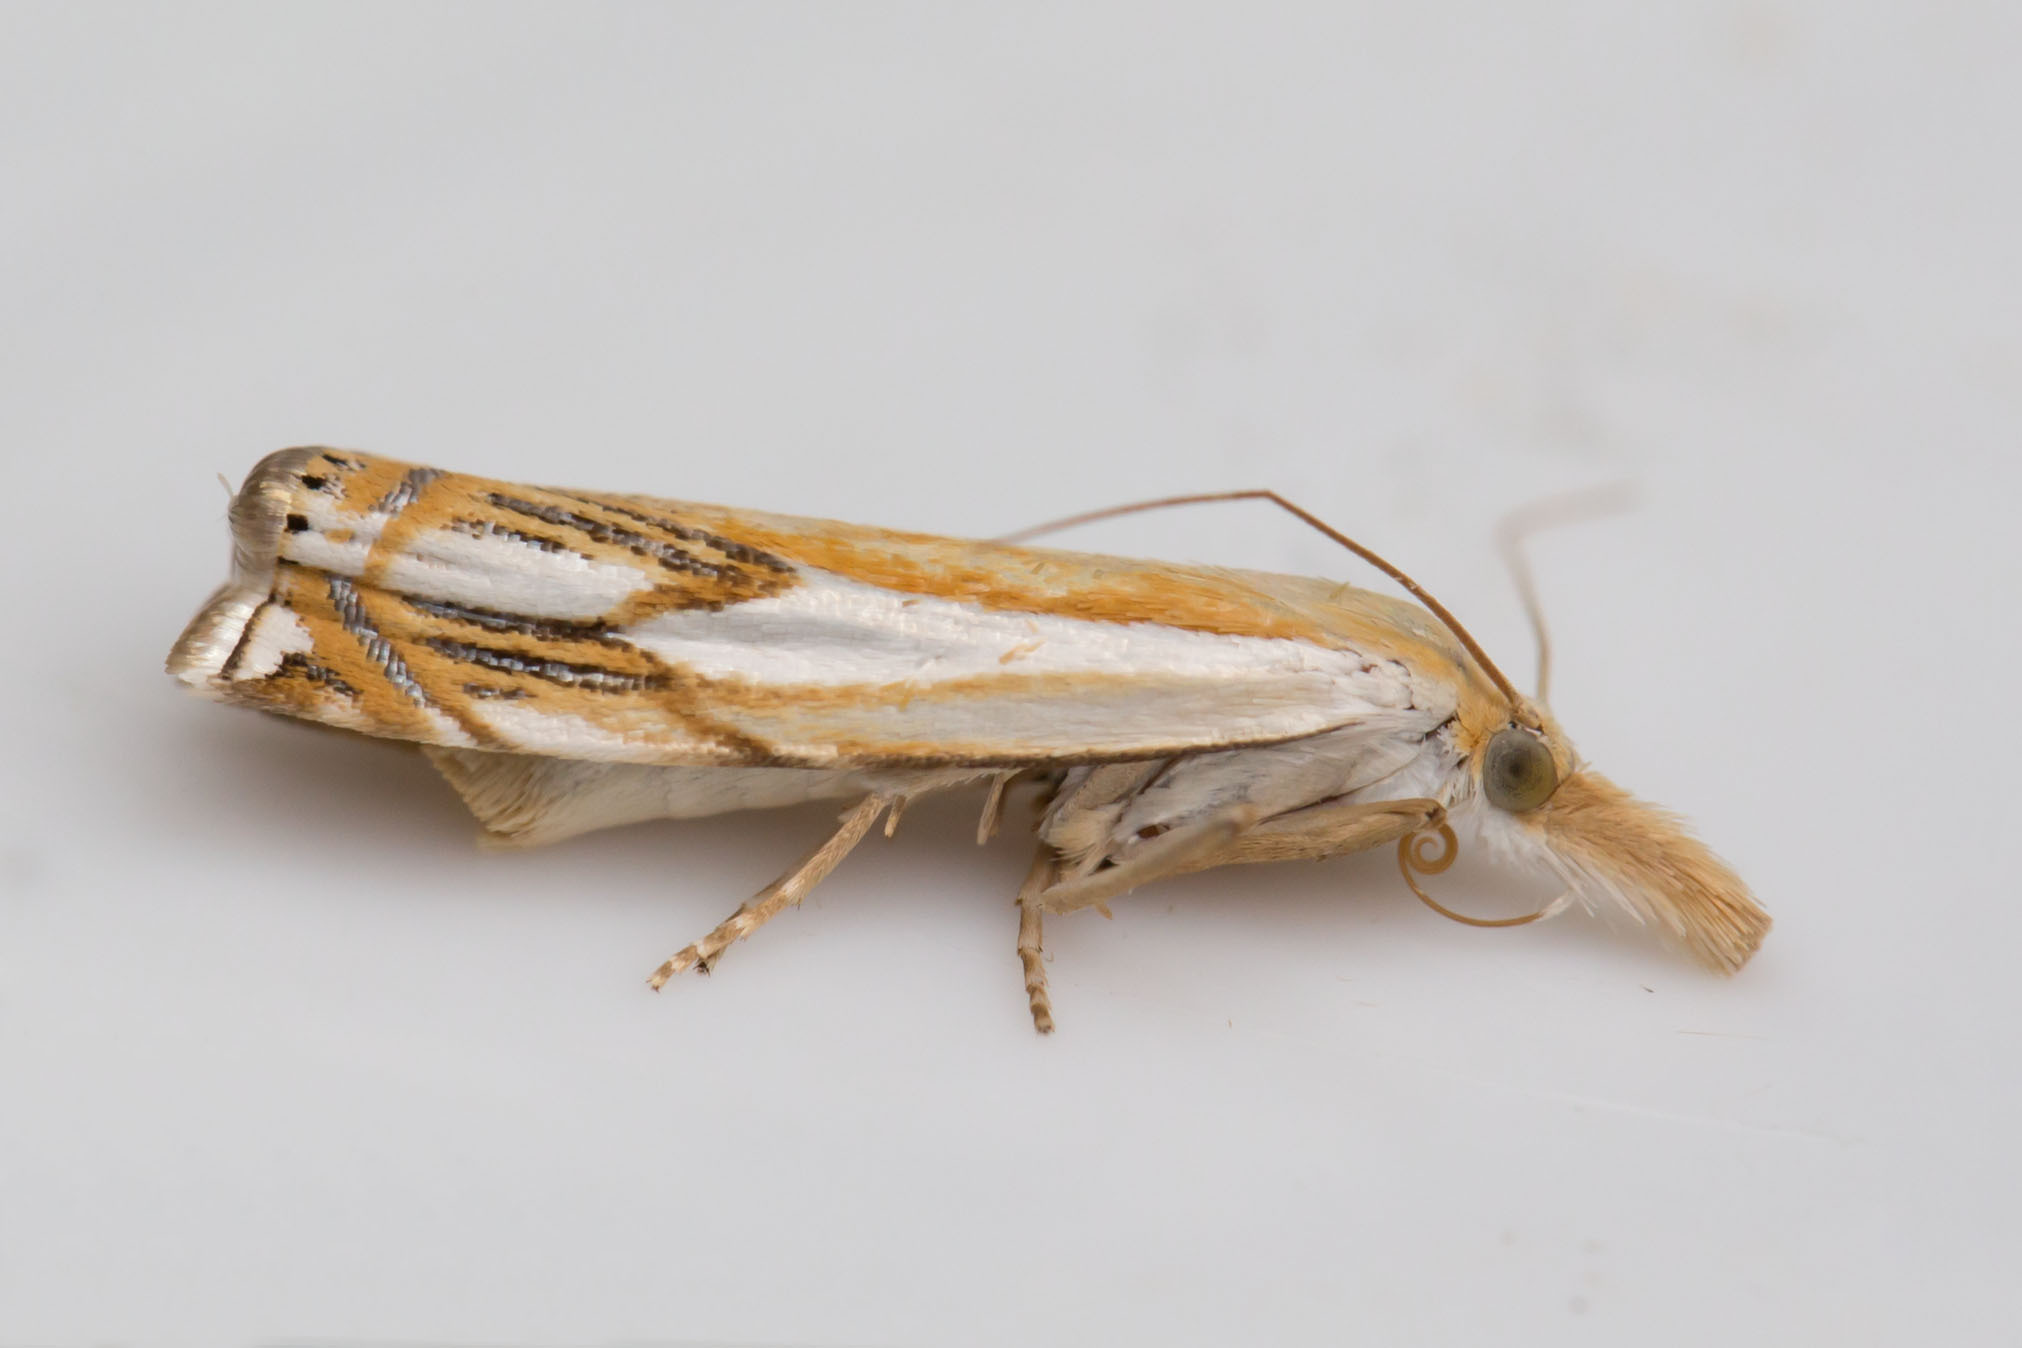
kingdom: Animalia
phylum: Arthropoda
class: Insecta
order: Lepidoptera
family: Crambidae
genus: Crambus
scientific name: Crambus agitatellus
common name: Double-banded grass-veneer
